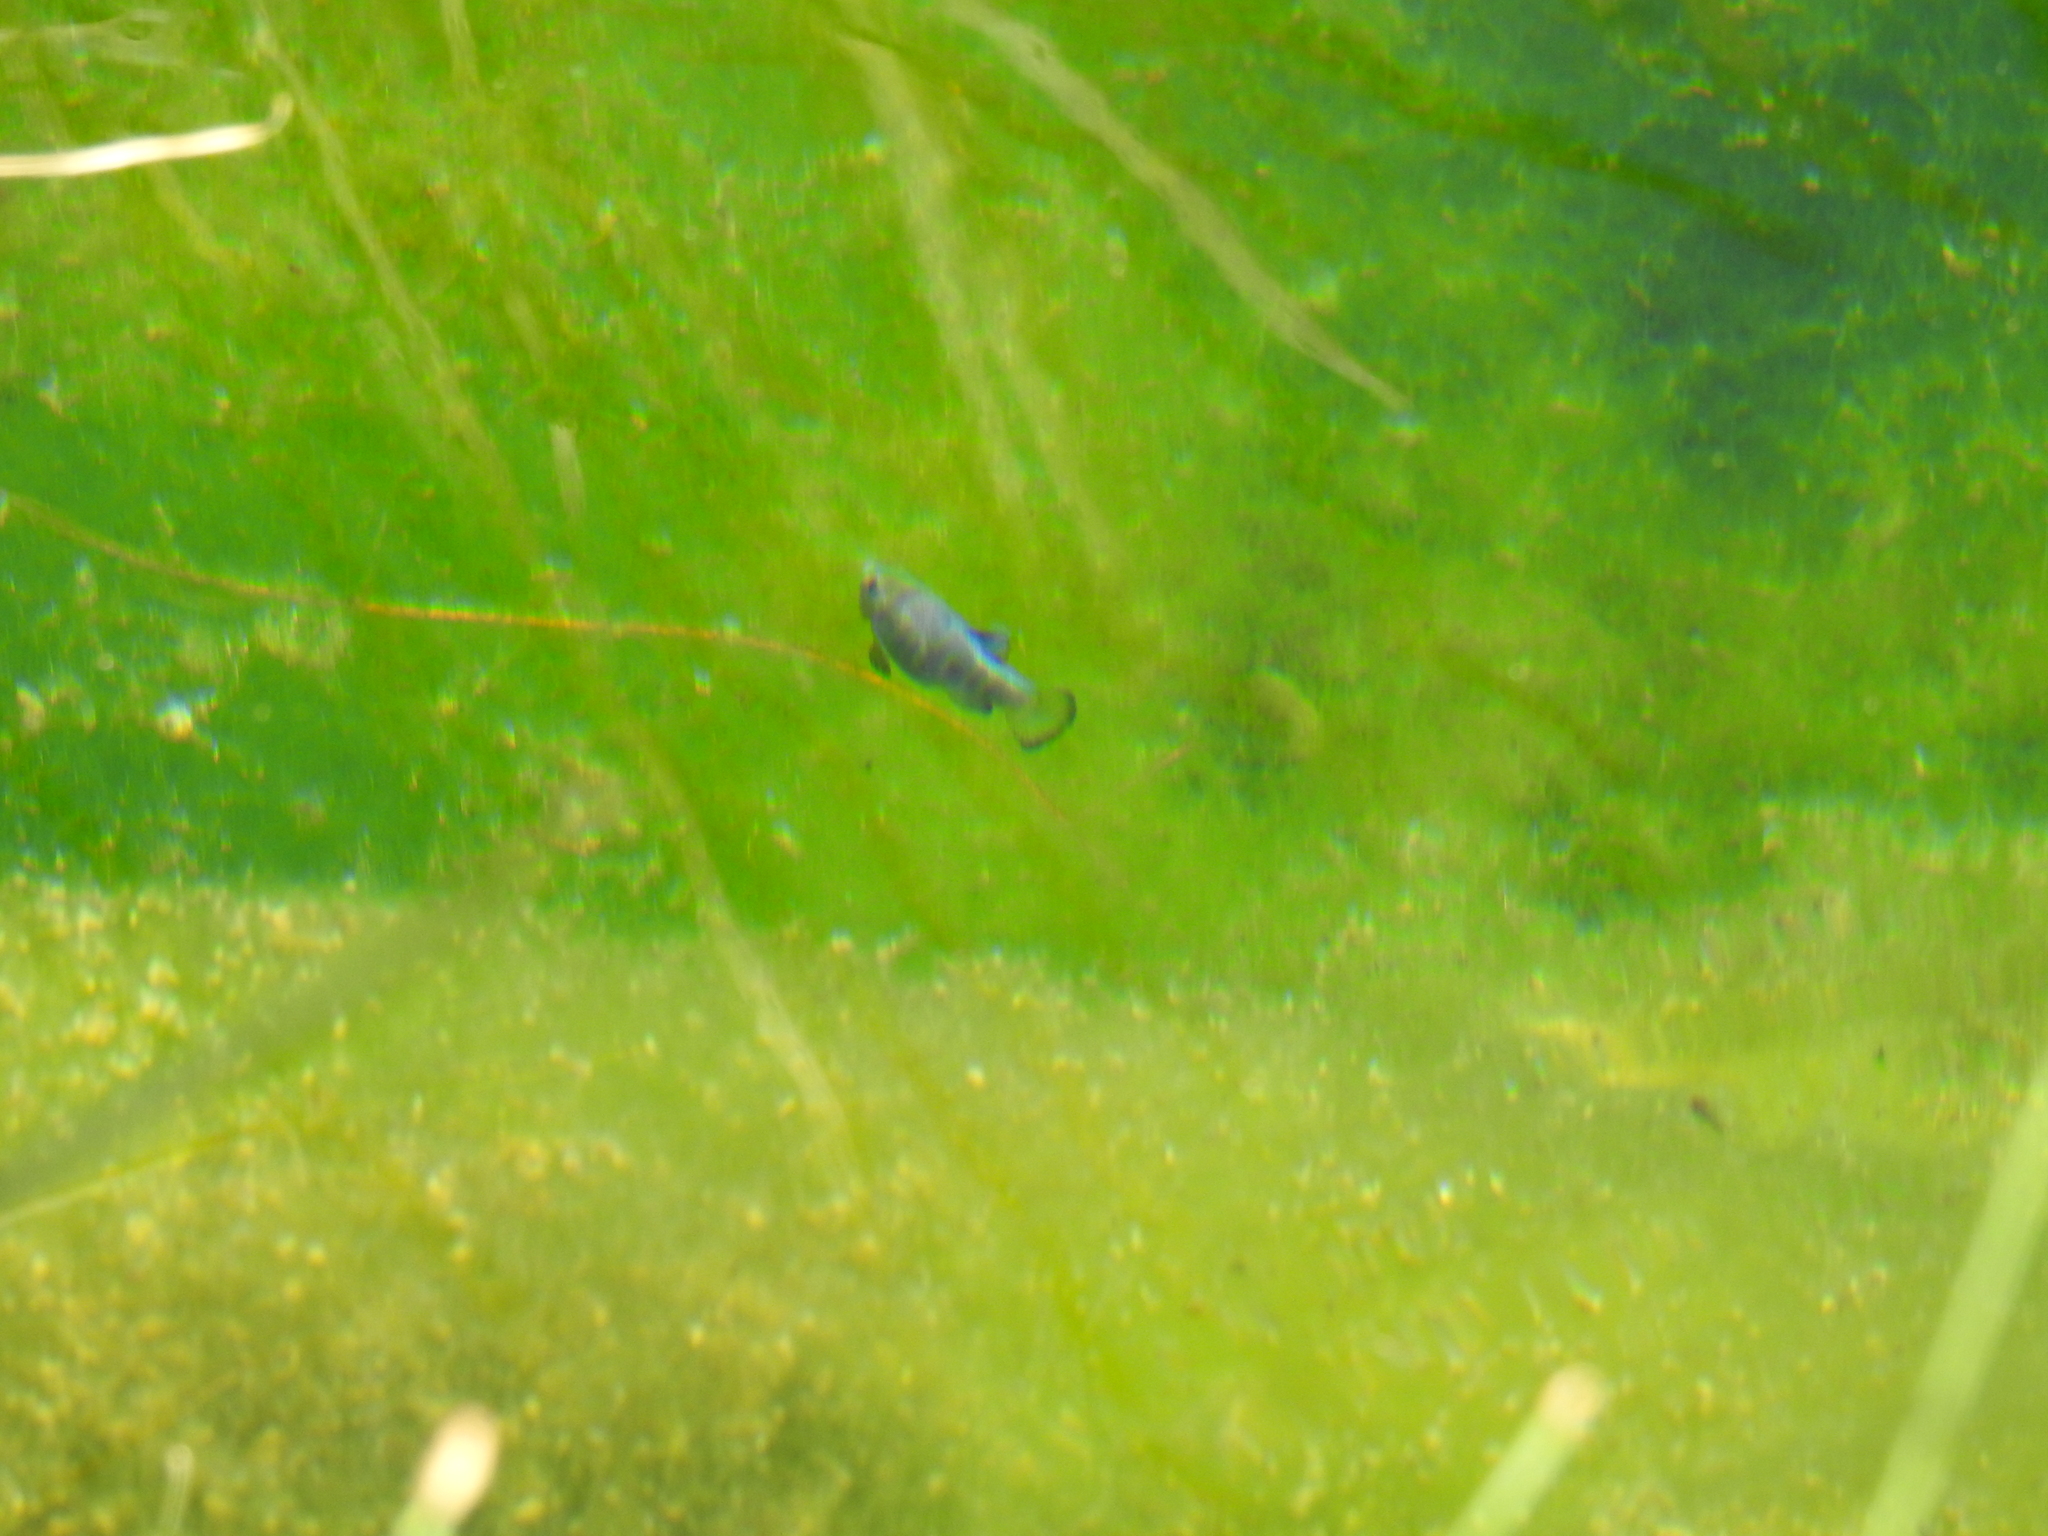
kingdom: Animalia
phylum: Chordata
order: Cyprinodontiformes
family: Cyprinodontidae
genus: Cyprinodon
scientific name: Cyprinodon nevadensis
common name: Amargosa pupfish
